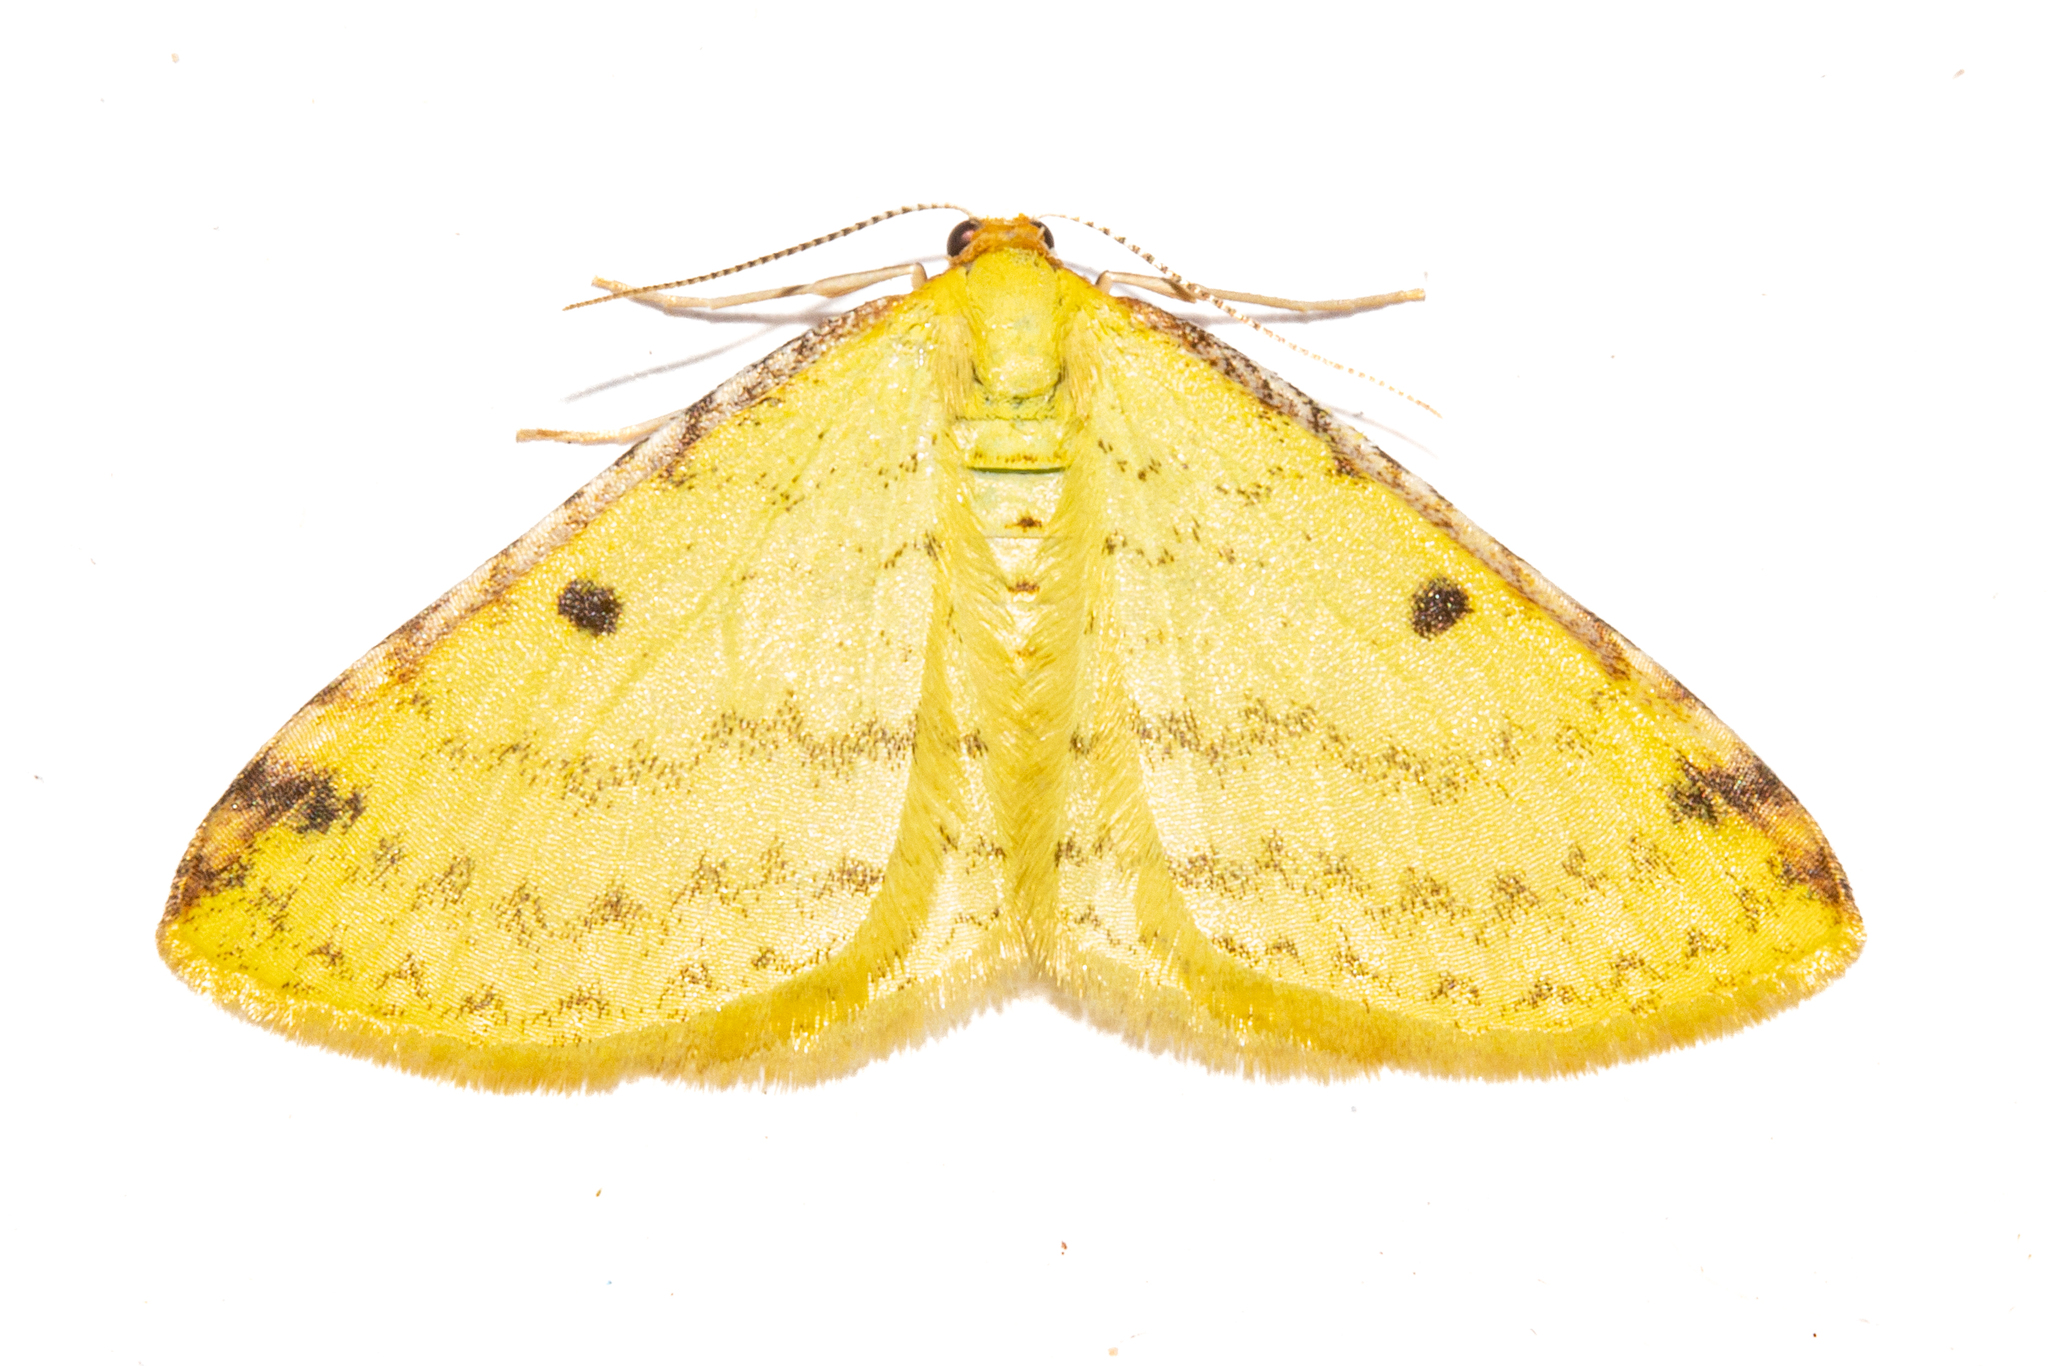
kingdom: Animalia
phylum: Arthropoda
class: Insecta
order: Lepidoptera
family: Geometridae
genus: Epiphryne
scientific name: Epiphryne undosata
